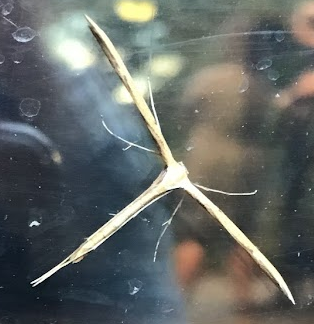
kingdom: Animalia
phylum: Arthropoda
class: Insecta
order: Lepidoptera
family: Pterophoridae
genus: Emmelina
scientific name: Emmelina monodactyla
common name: Common plume
